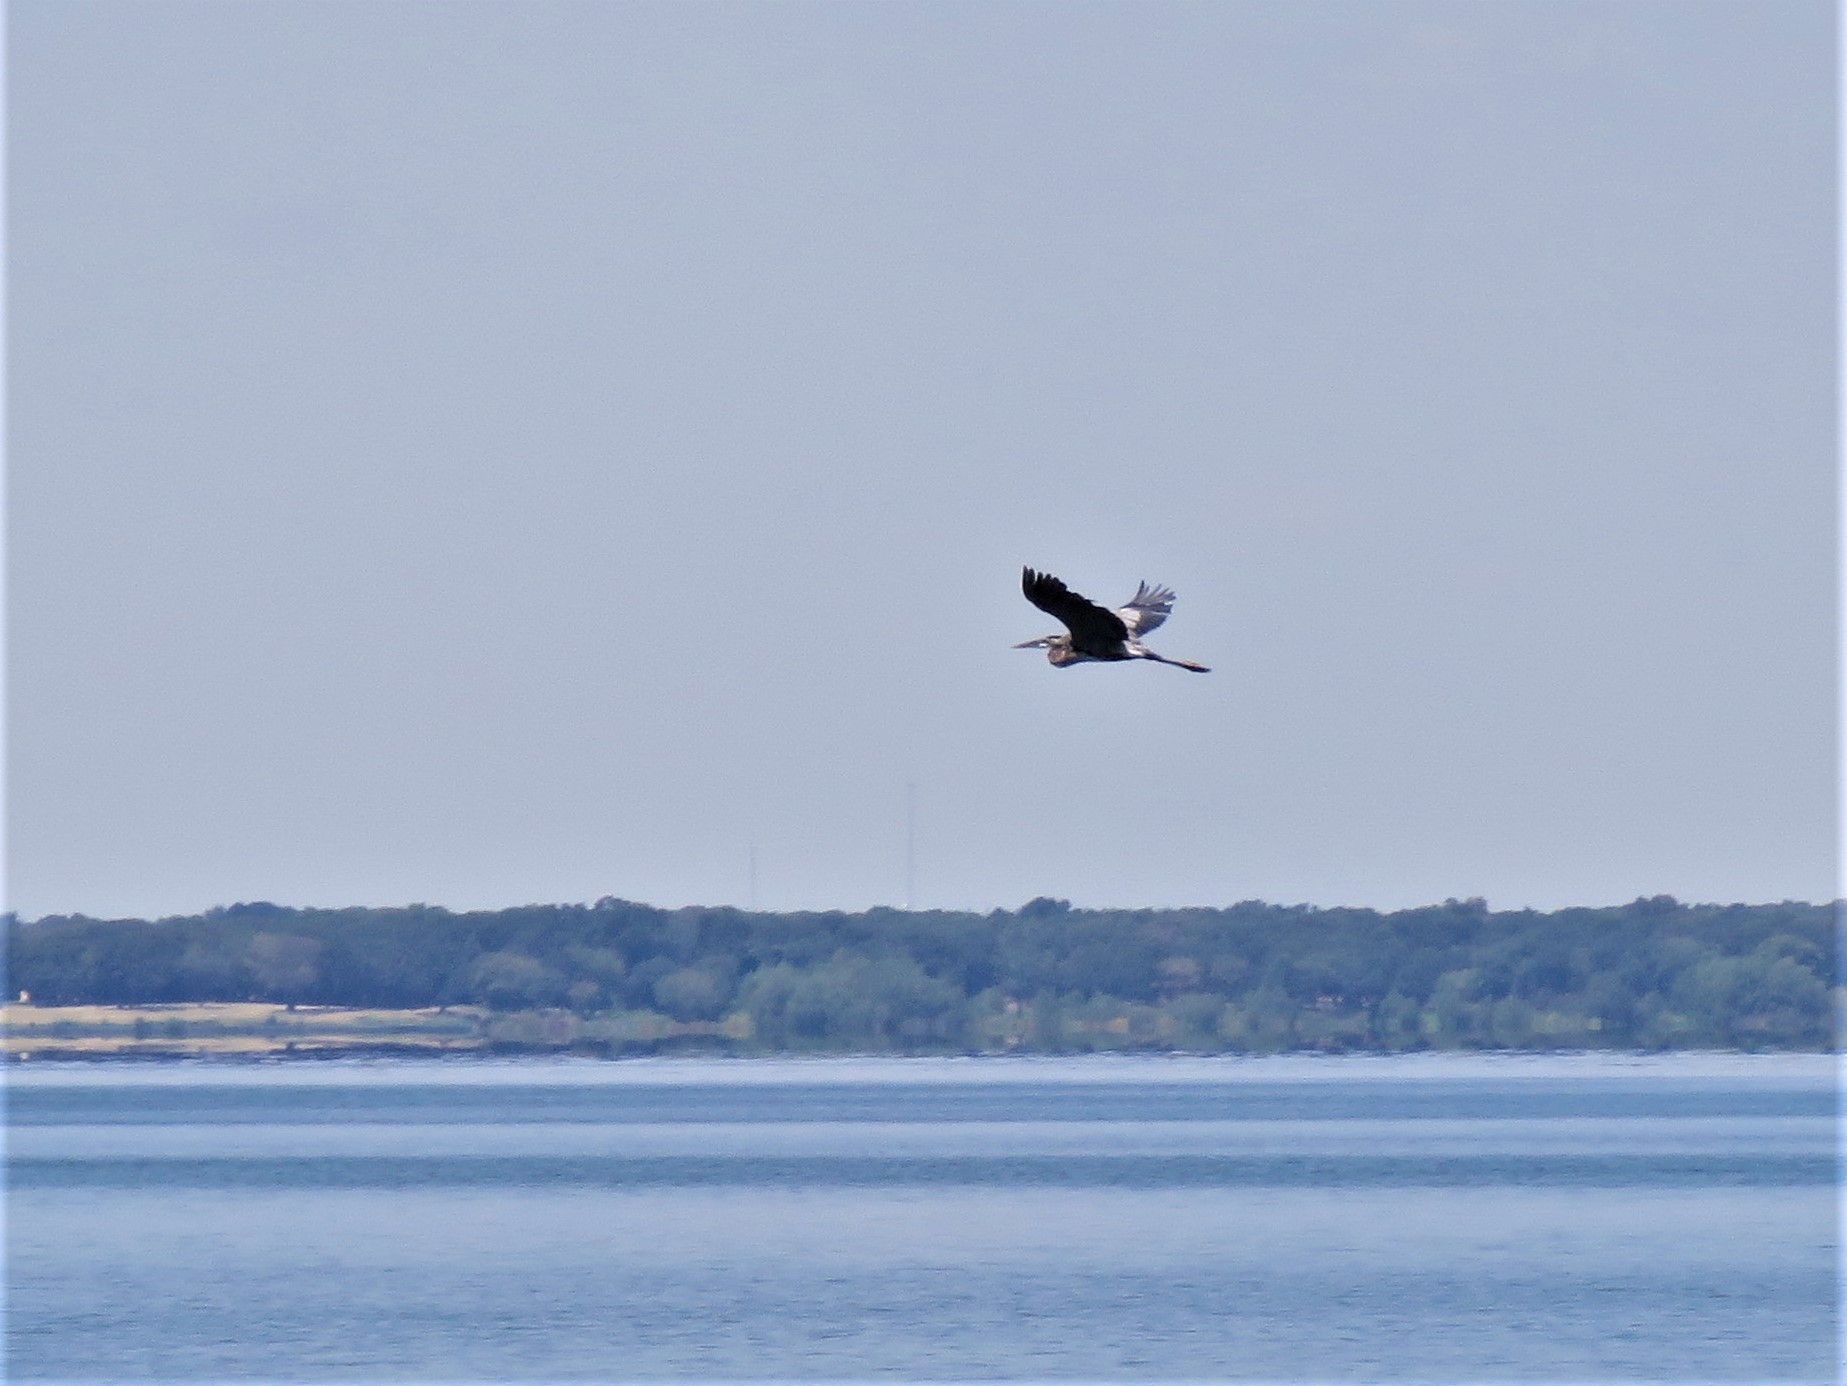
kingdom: Animalia
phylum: Chordata
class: Aves
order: Pelecaniformes
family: Ardeidae
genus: Ardea
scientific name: Ardea herodias
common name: Great blue heron
